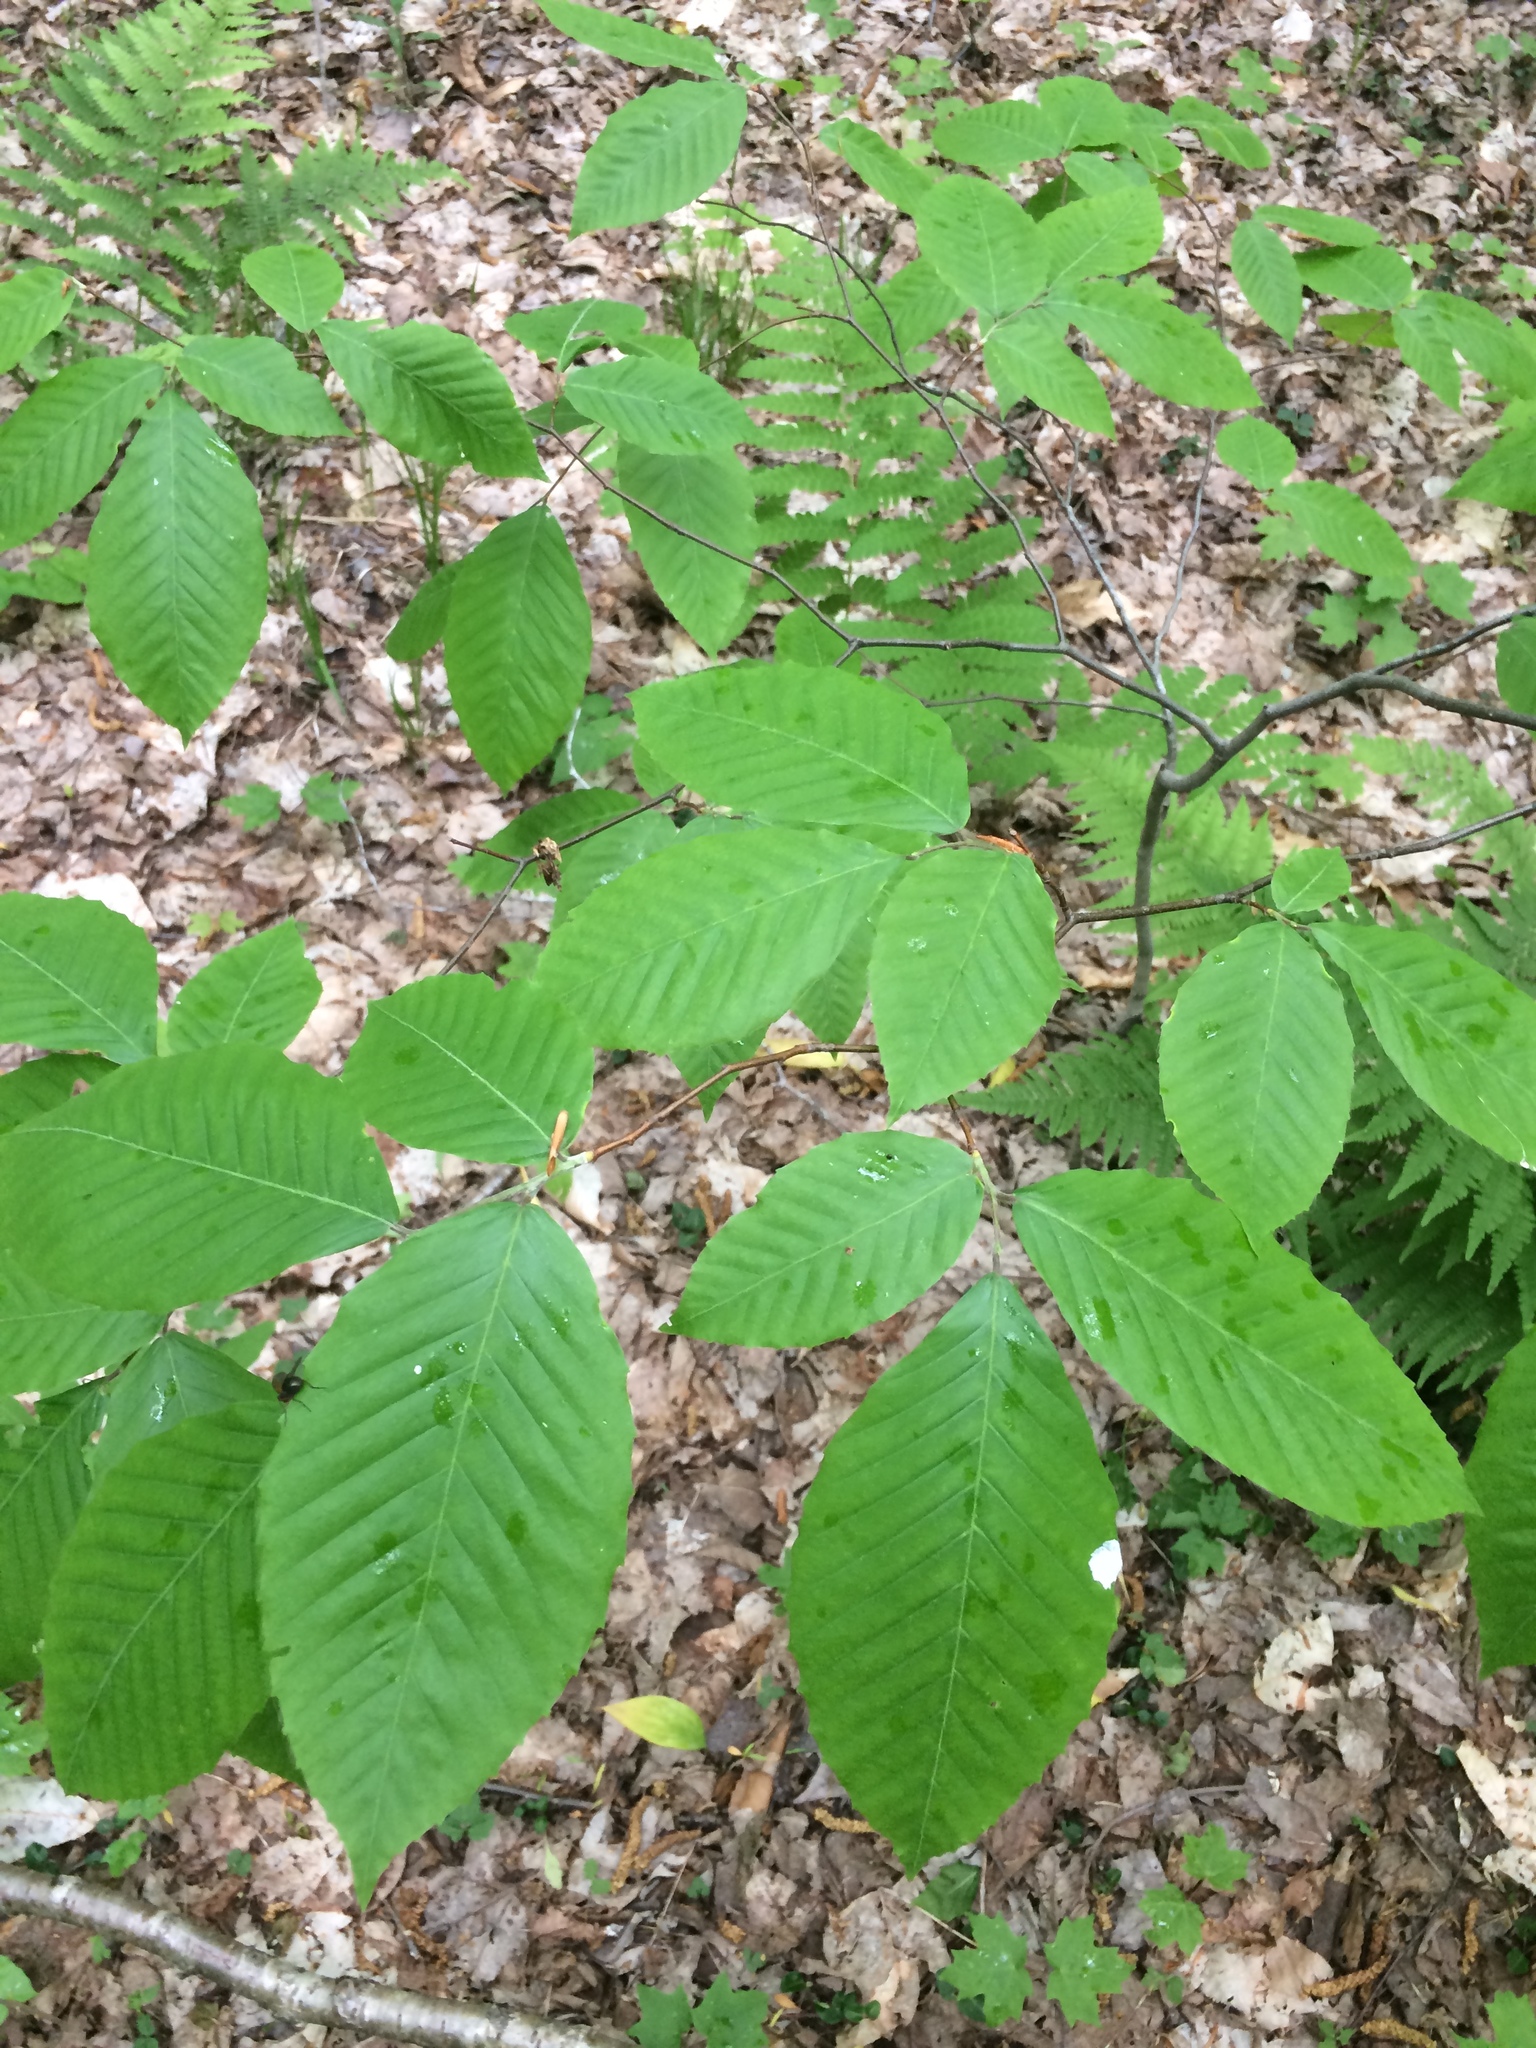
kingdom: Plantae
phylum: Tracheophyta
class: Magnoliopsida
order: Fagales
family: Fagaceae
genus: Fagus
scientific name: Fagus grandifolia
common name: American beech
